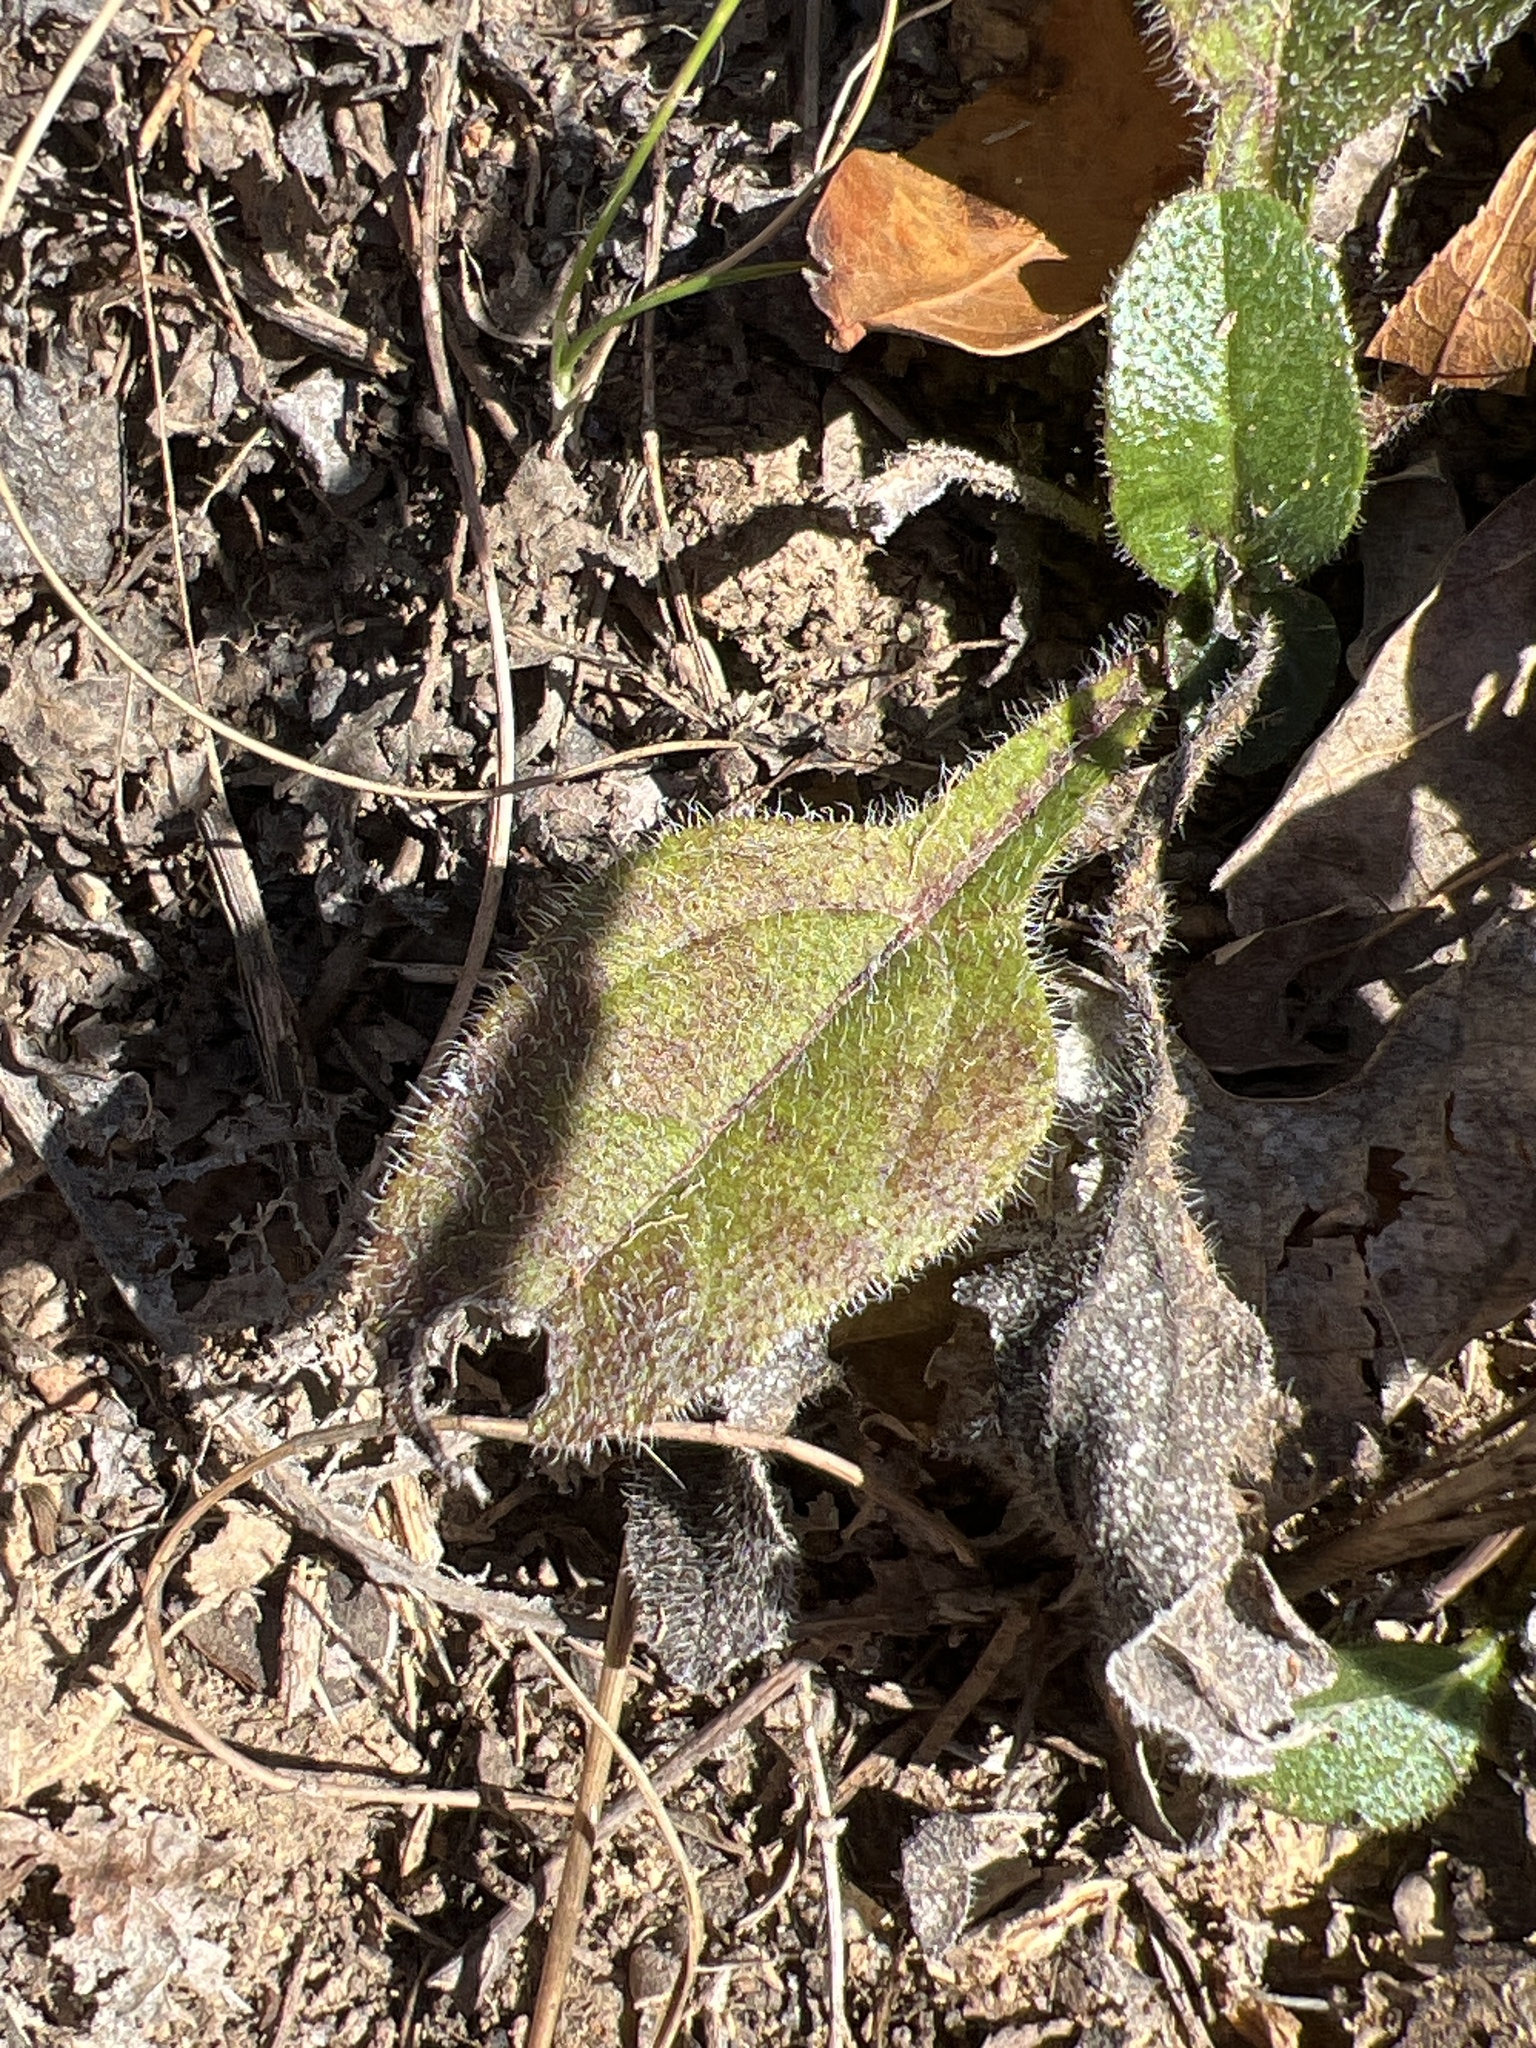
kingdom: Plantae
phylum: Tracheophyta
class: Magnoliopsida
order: Asterales
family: Asteraceae
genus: Helianthus
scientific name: Helianthus atrorubens
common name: Dark-eyed sunflower
